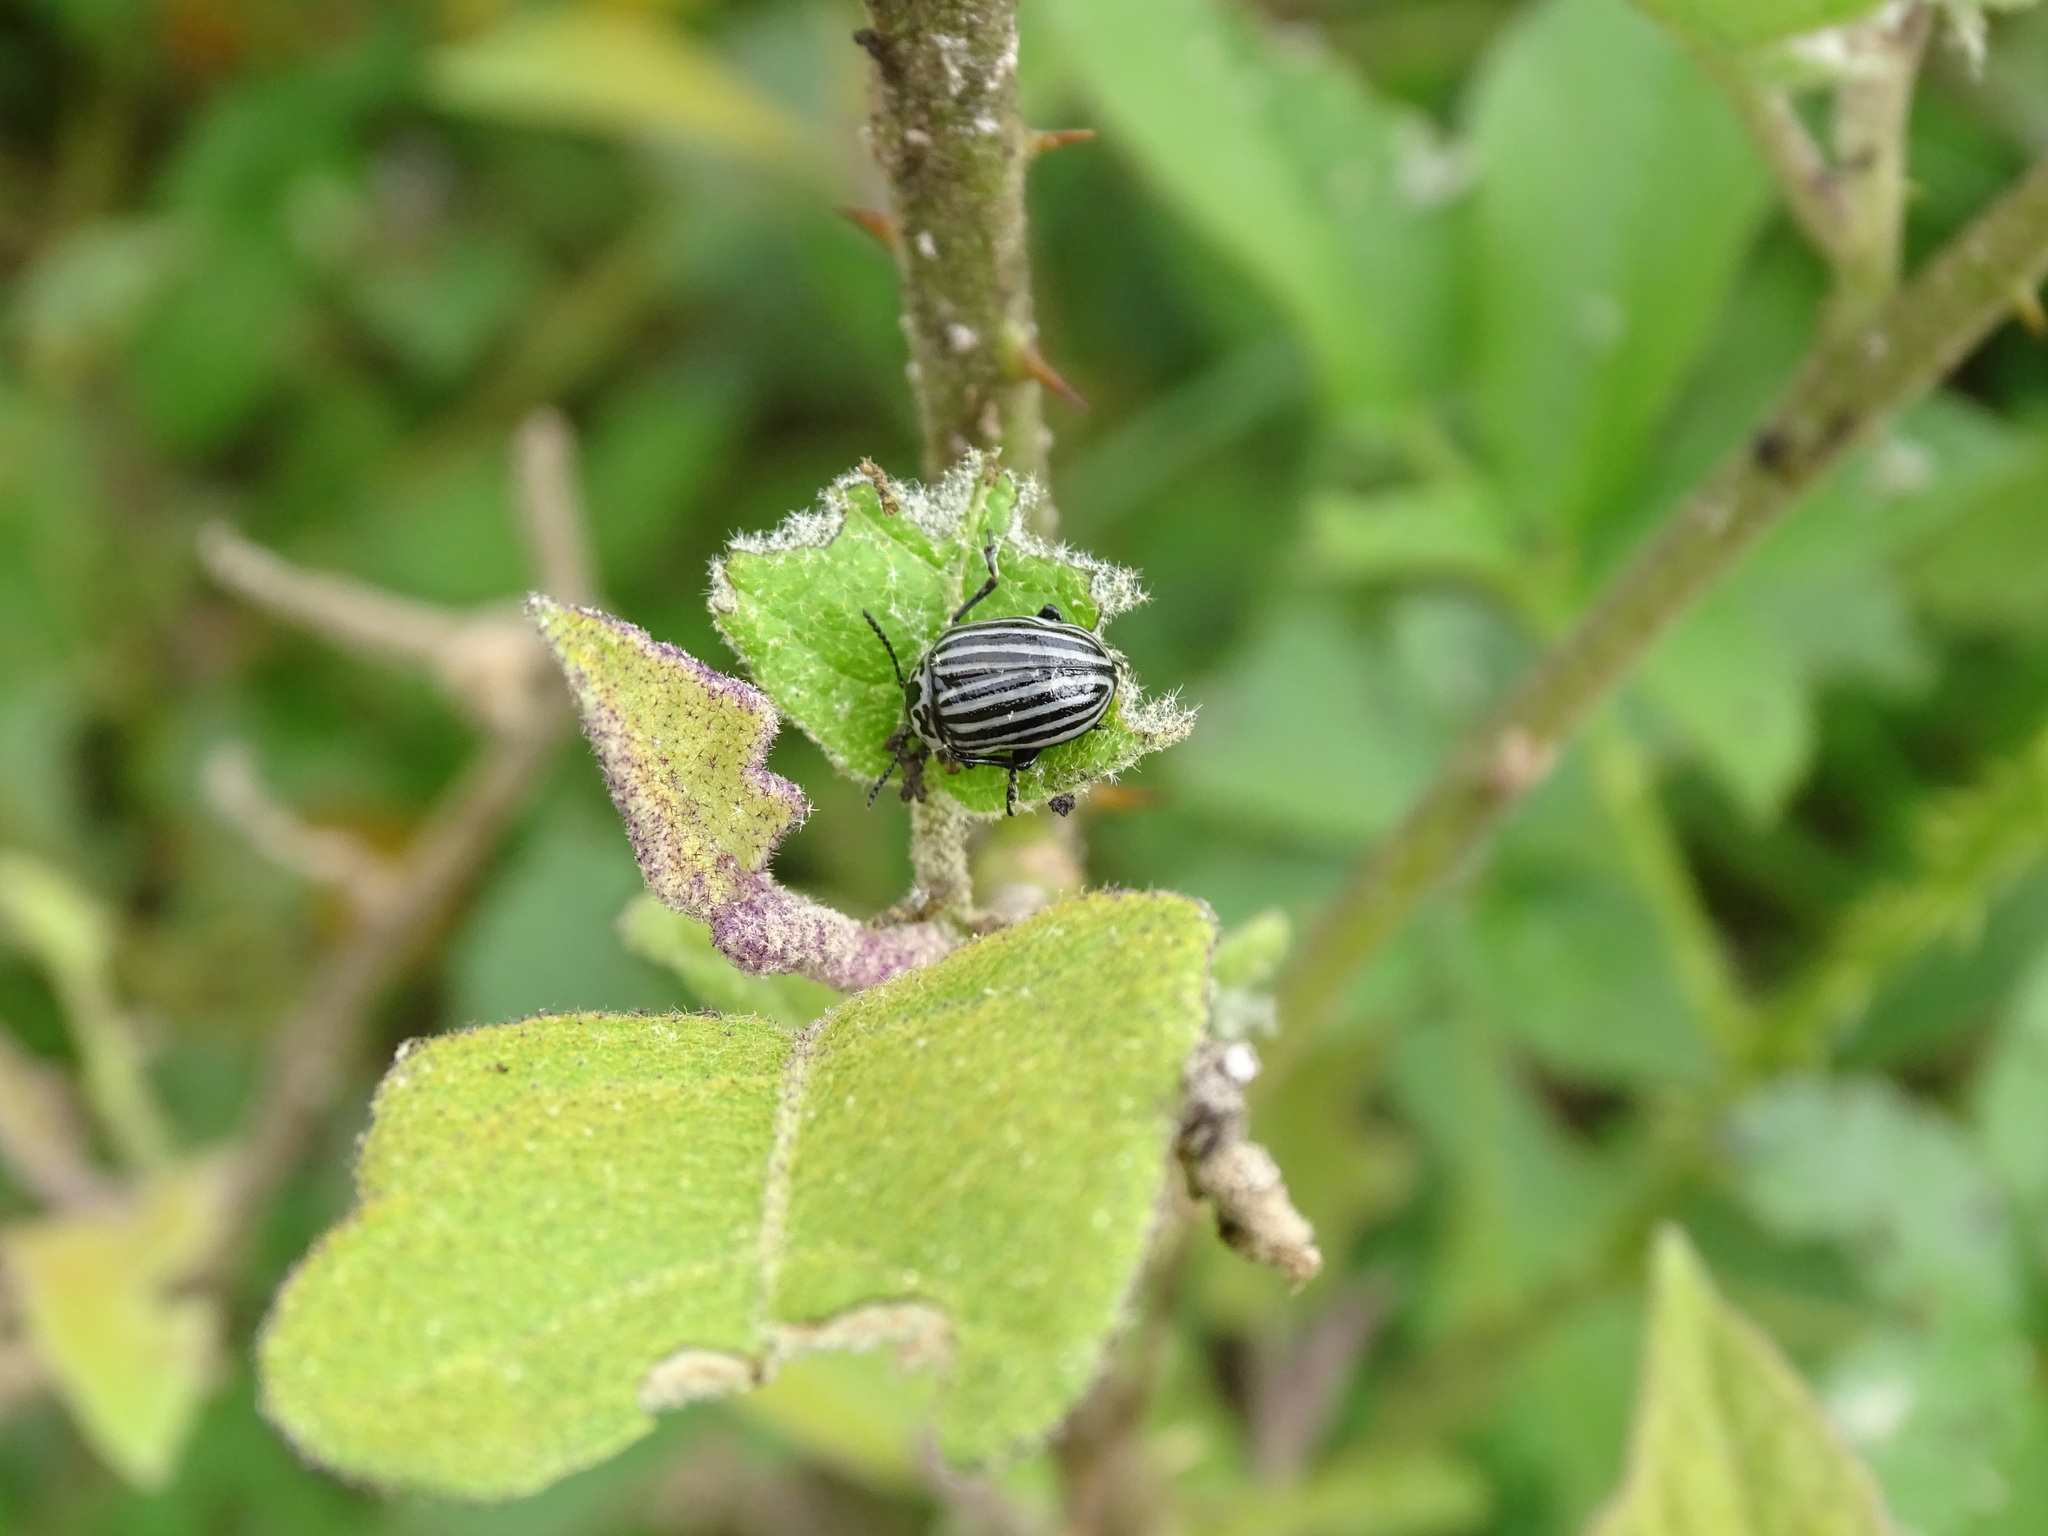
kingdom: Animalia
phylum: Arthropoda
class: Insecta
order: Coleoptera
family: Chrysomelidae
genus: Leptinotarsa
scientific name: Leptinotarsa
